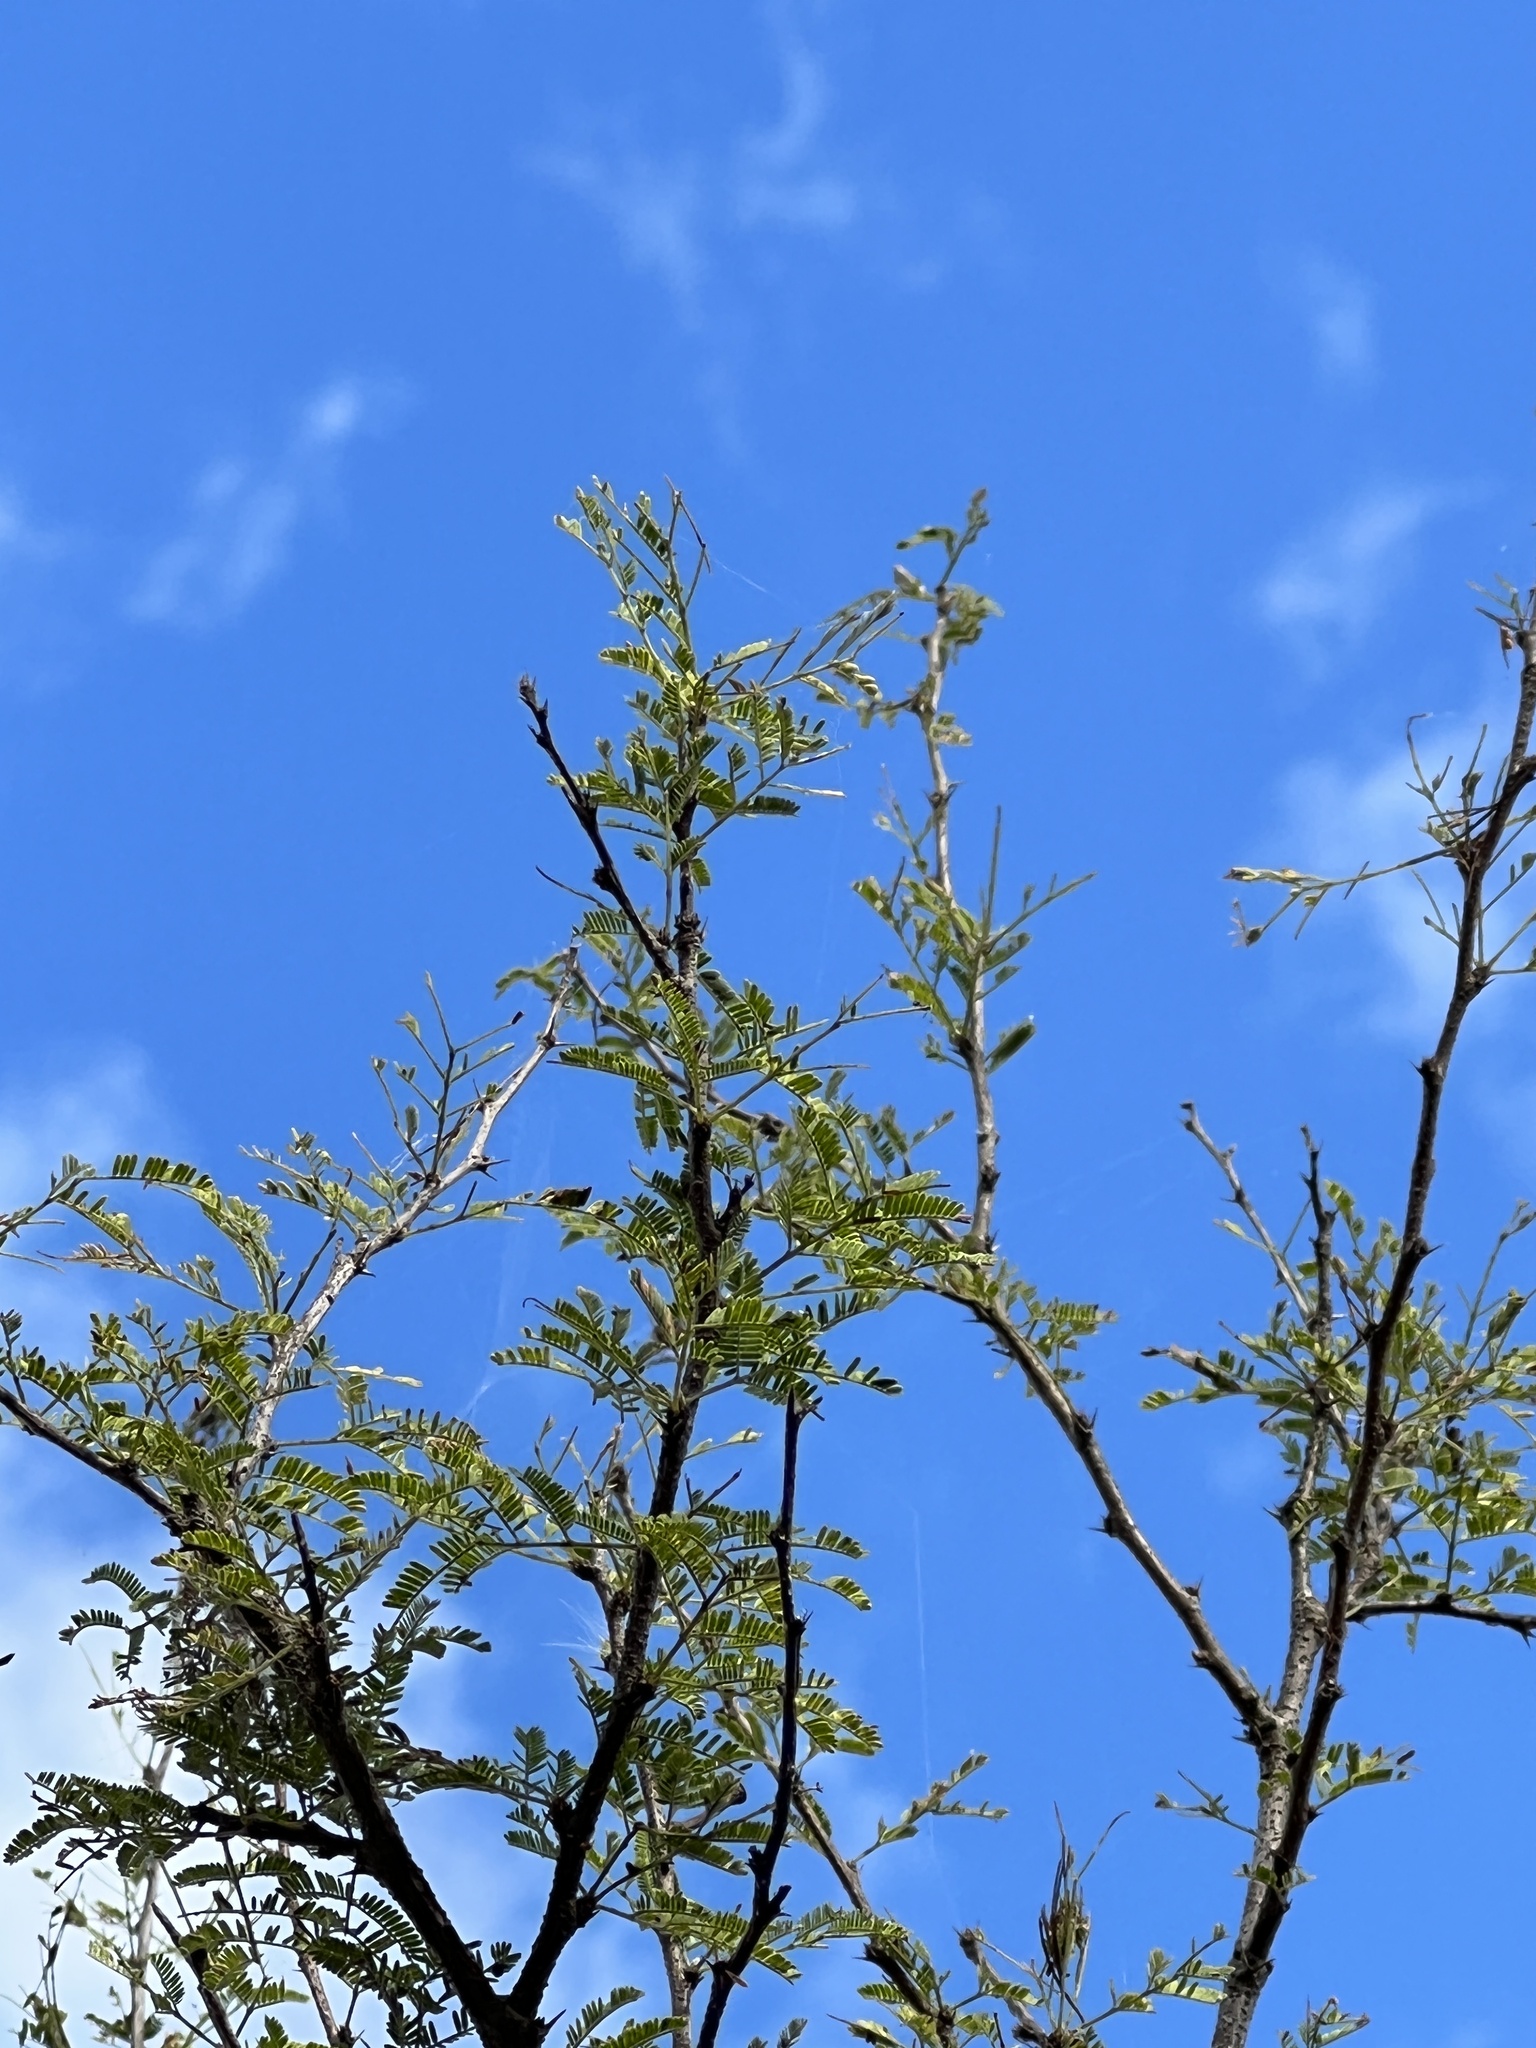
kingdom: Plantae
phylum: Tracheophyta
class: Magnoliopsida
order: Fabales
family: Fabaceae
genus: Vachellia
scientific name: Vachellia farnesiana
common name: Sweet acacia
